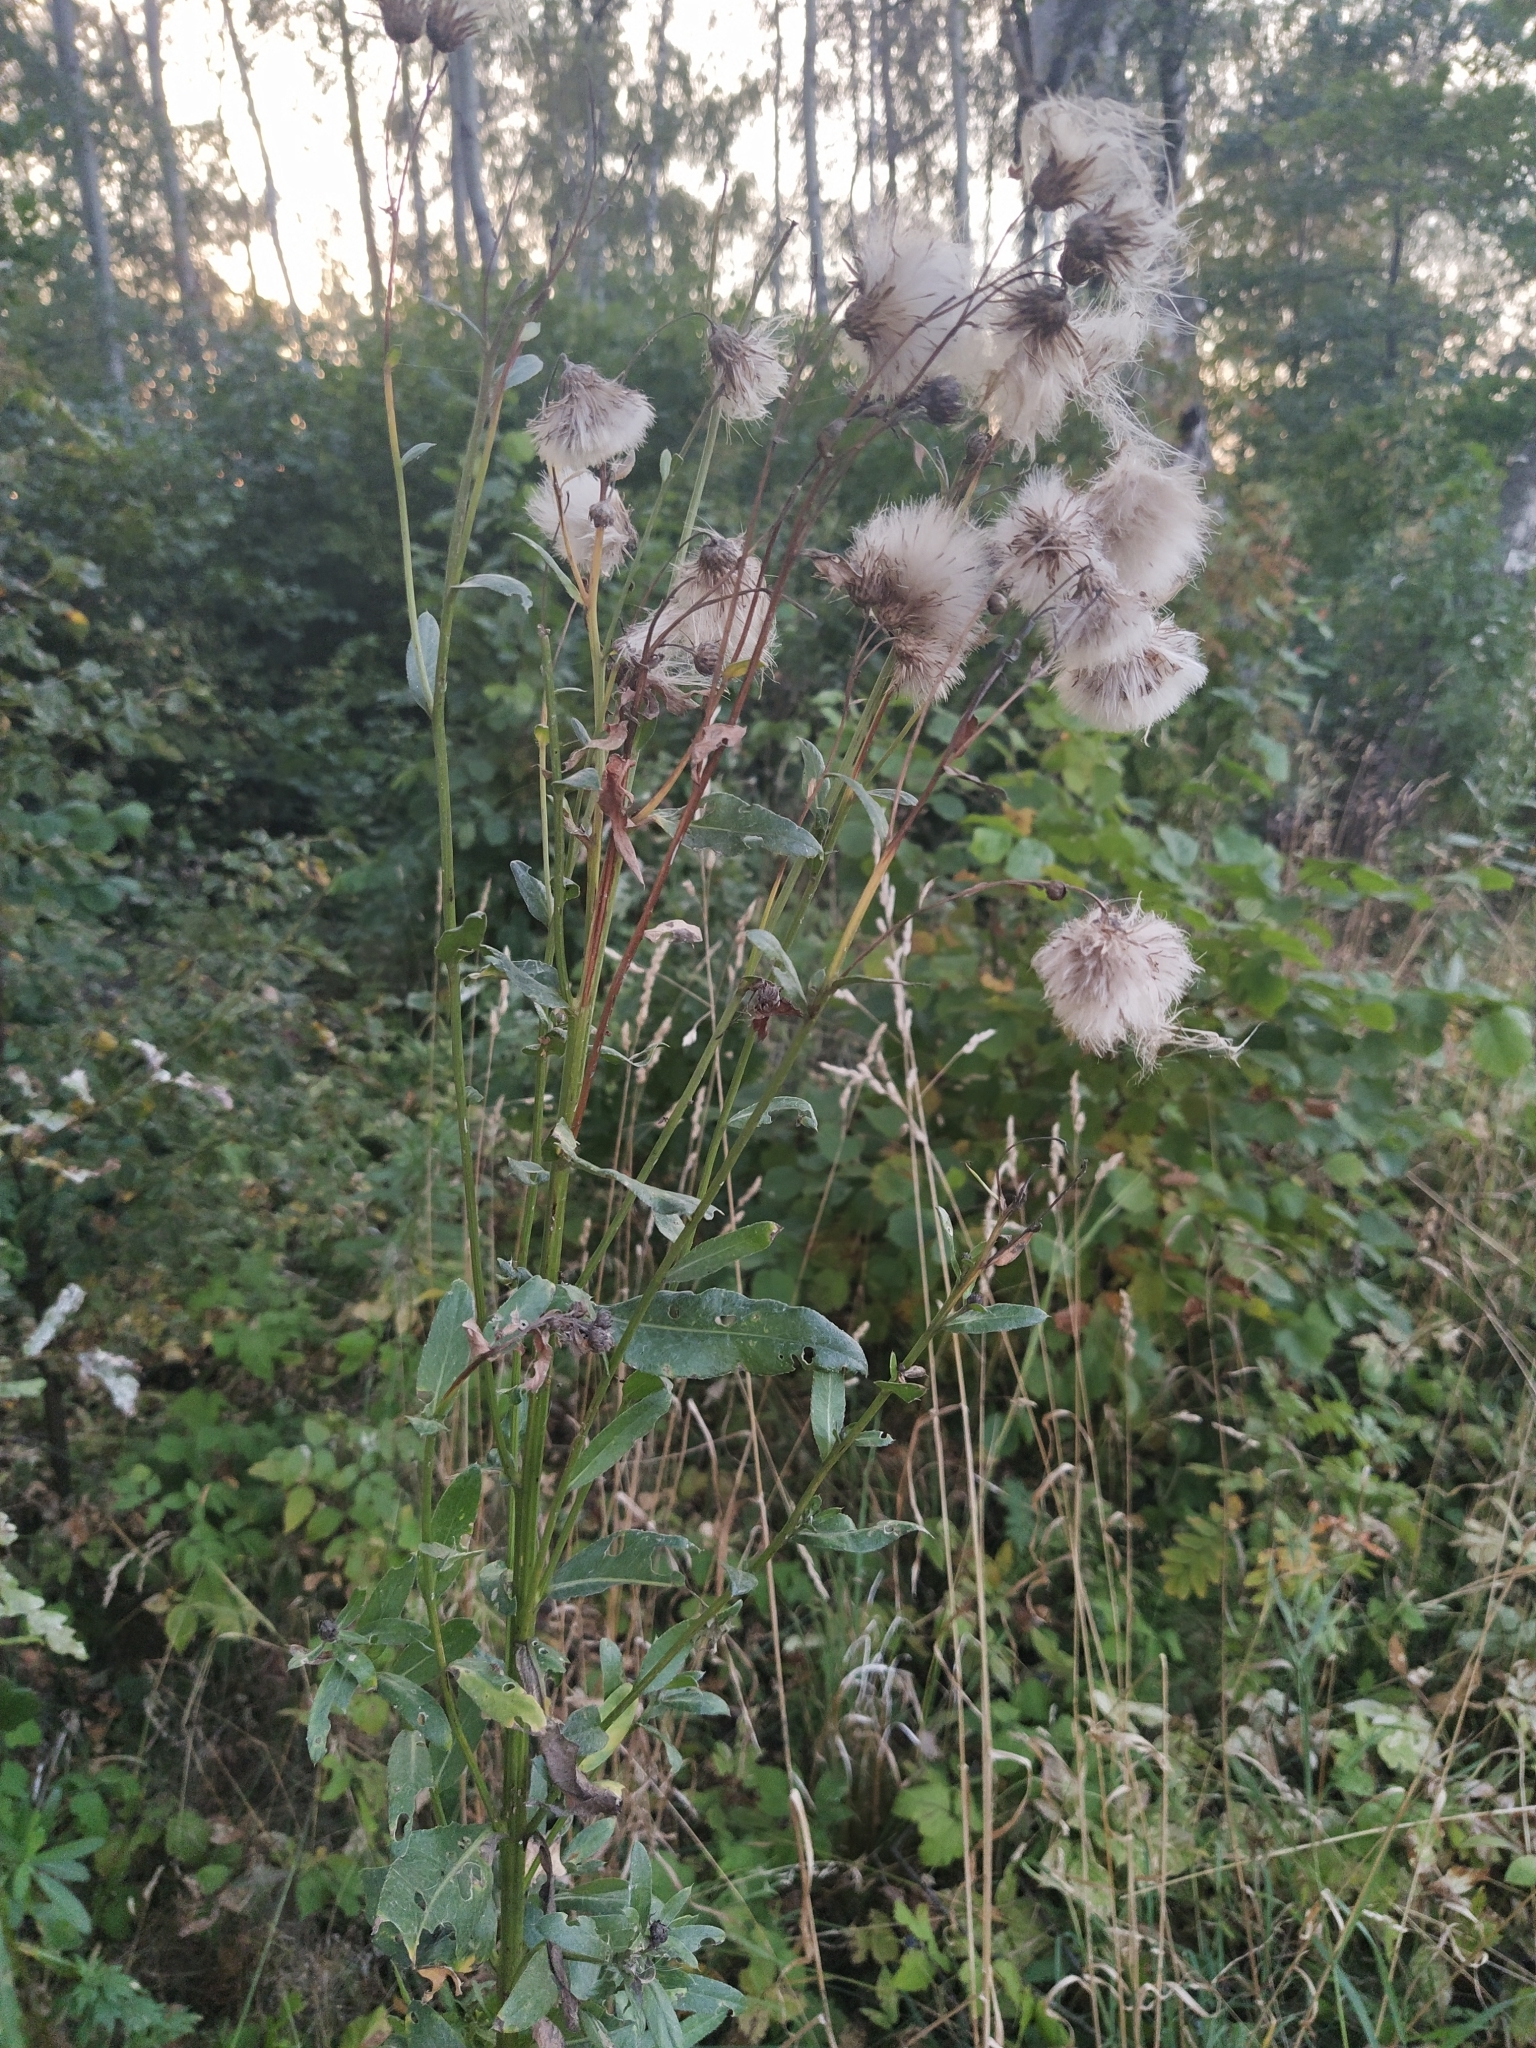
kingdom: Plantae
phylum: Tracheophyta
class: Magnoliopsida
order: Asterales
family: Asteraceae
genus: Cirsium
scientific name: Cirsium arvense
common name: Creeping thistle
